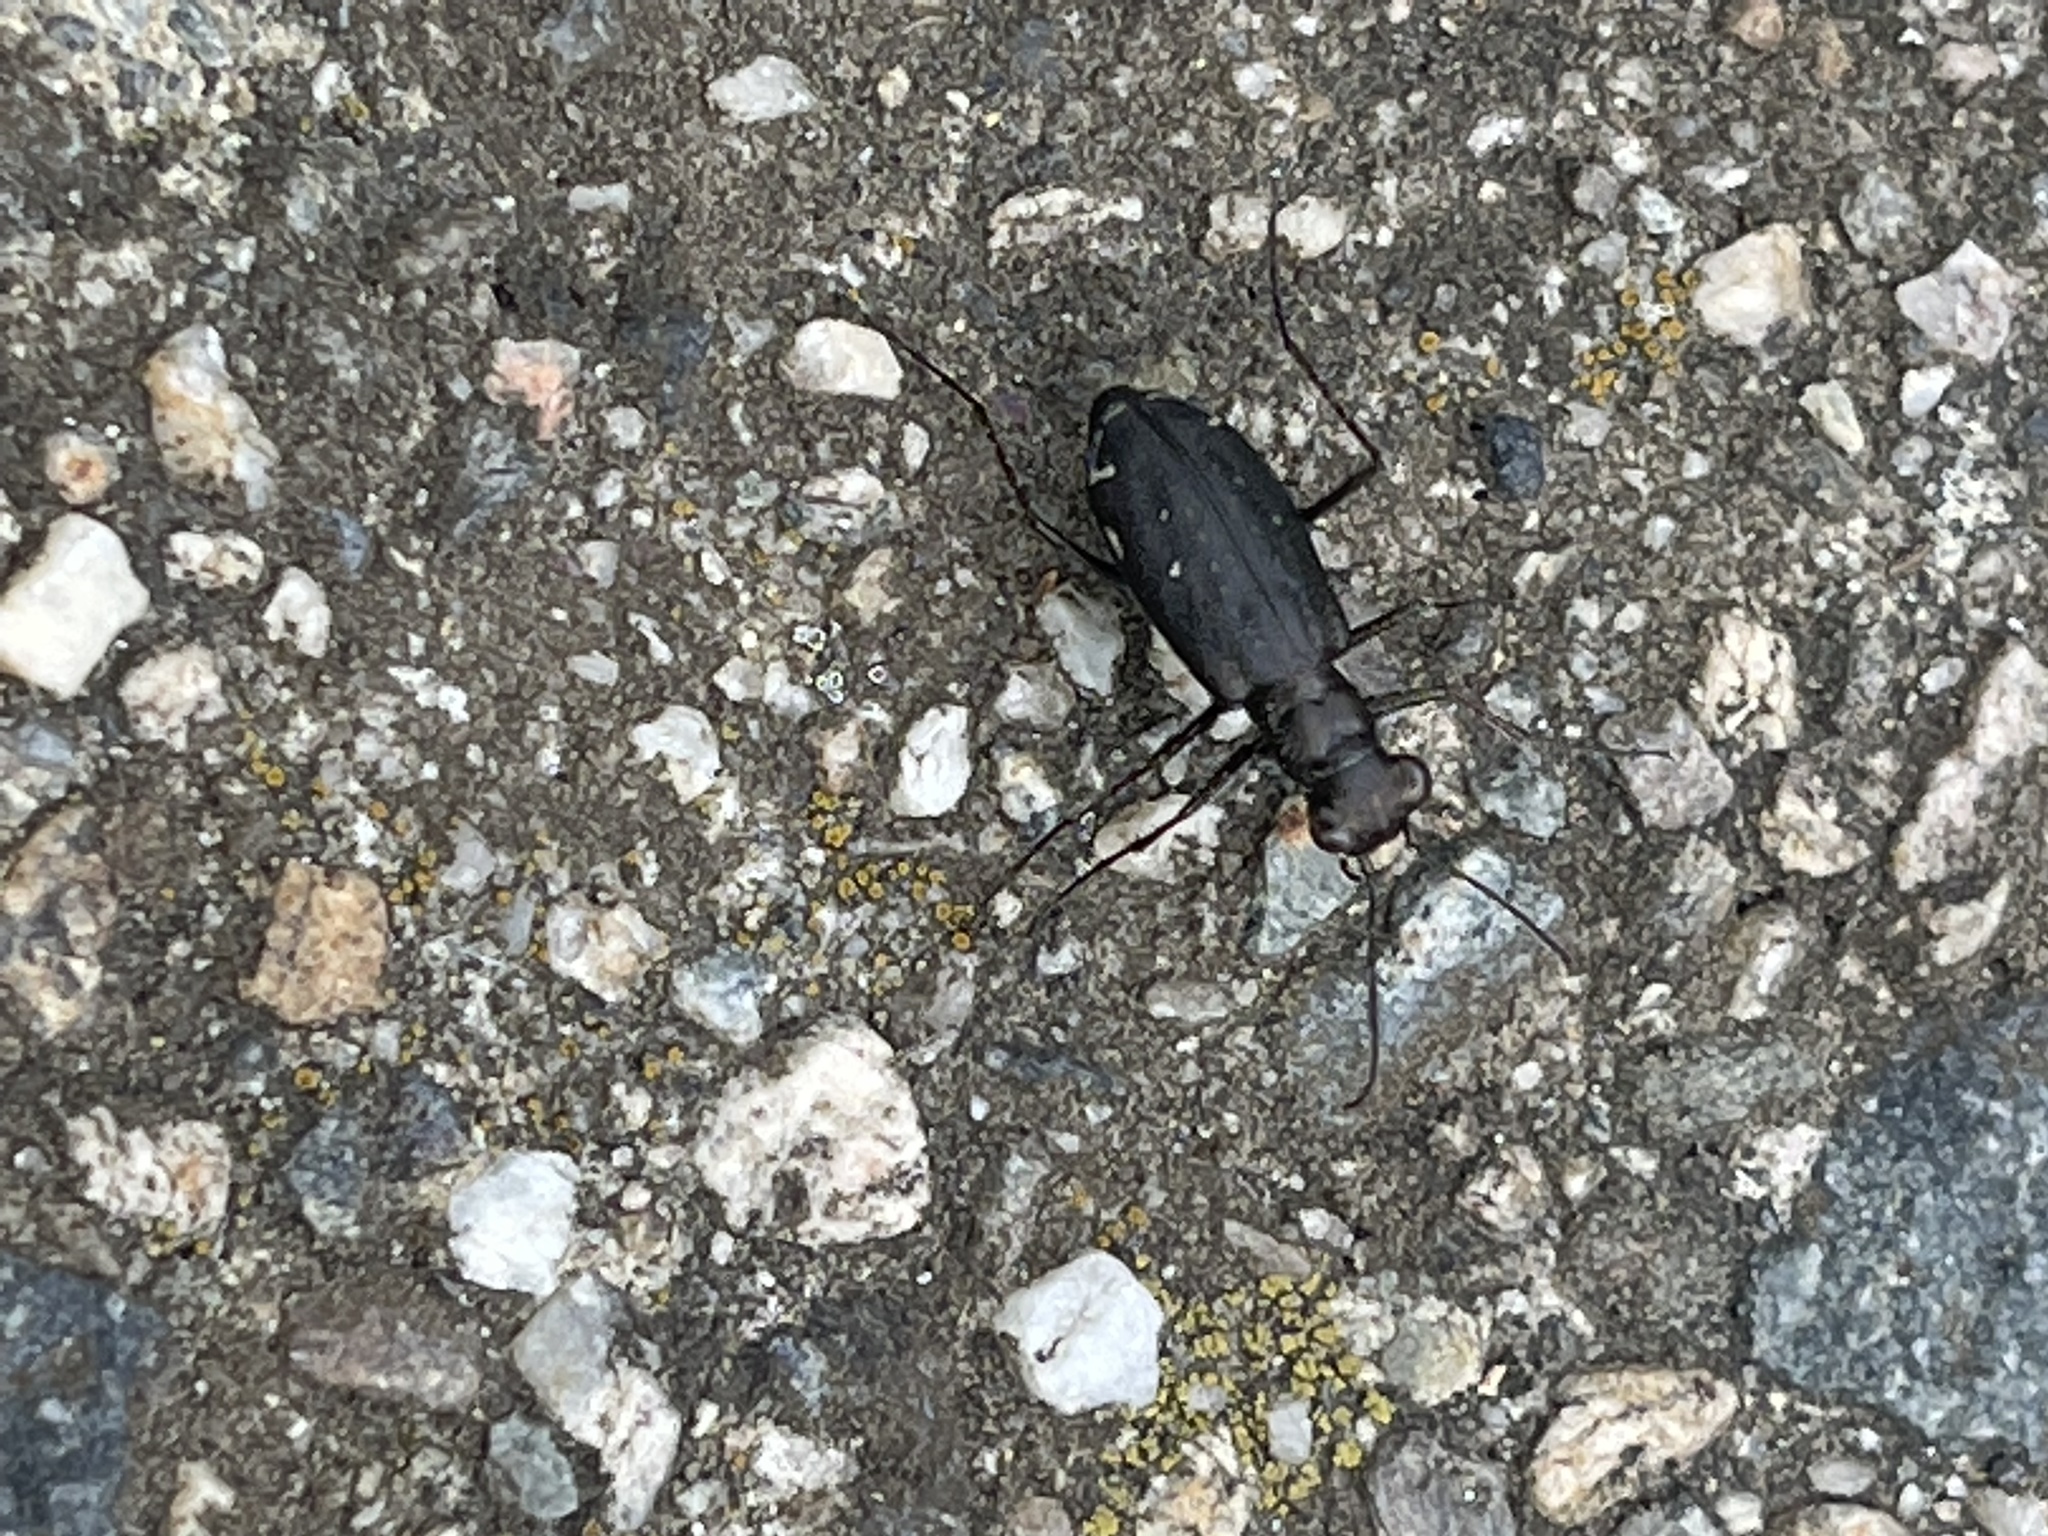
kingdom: Animalia
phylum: Arthropoda
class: Insecta
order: Coleoptera
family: Carabidae
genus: Cicindela
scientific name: Cicindela punctulata
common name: Punctured tiger beetle
